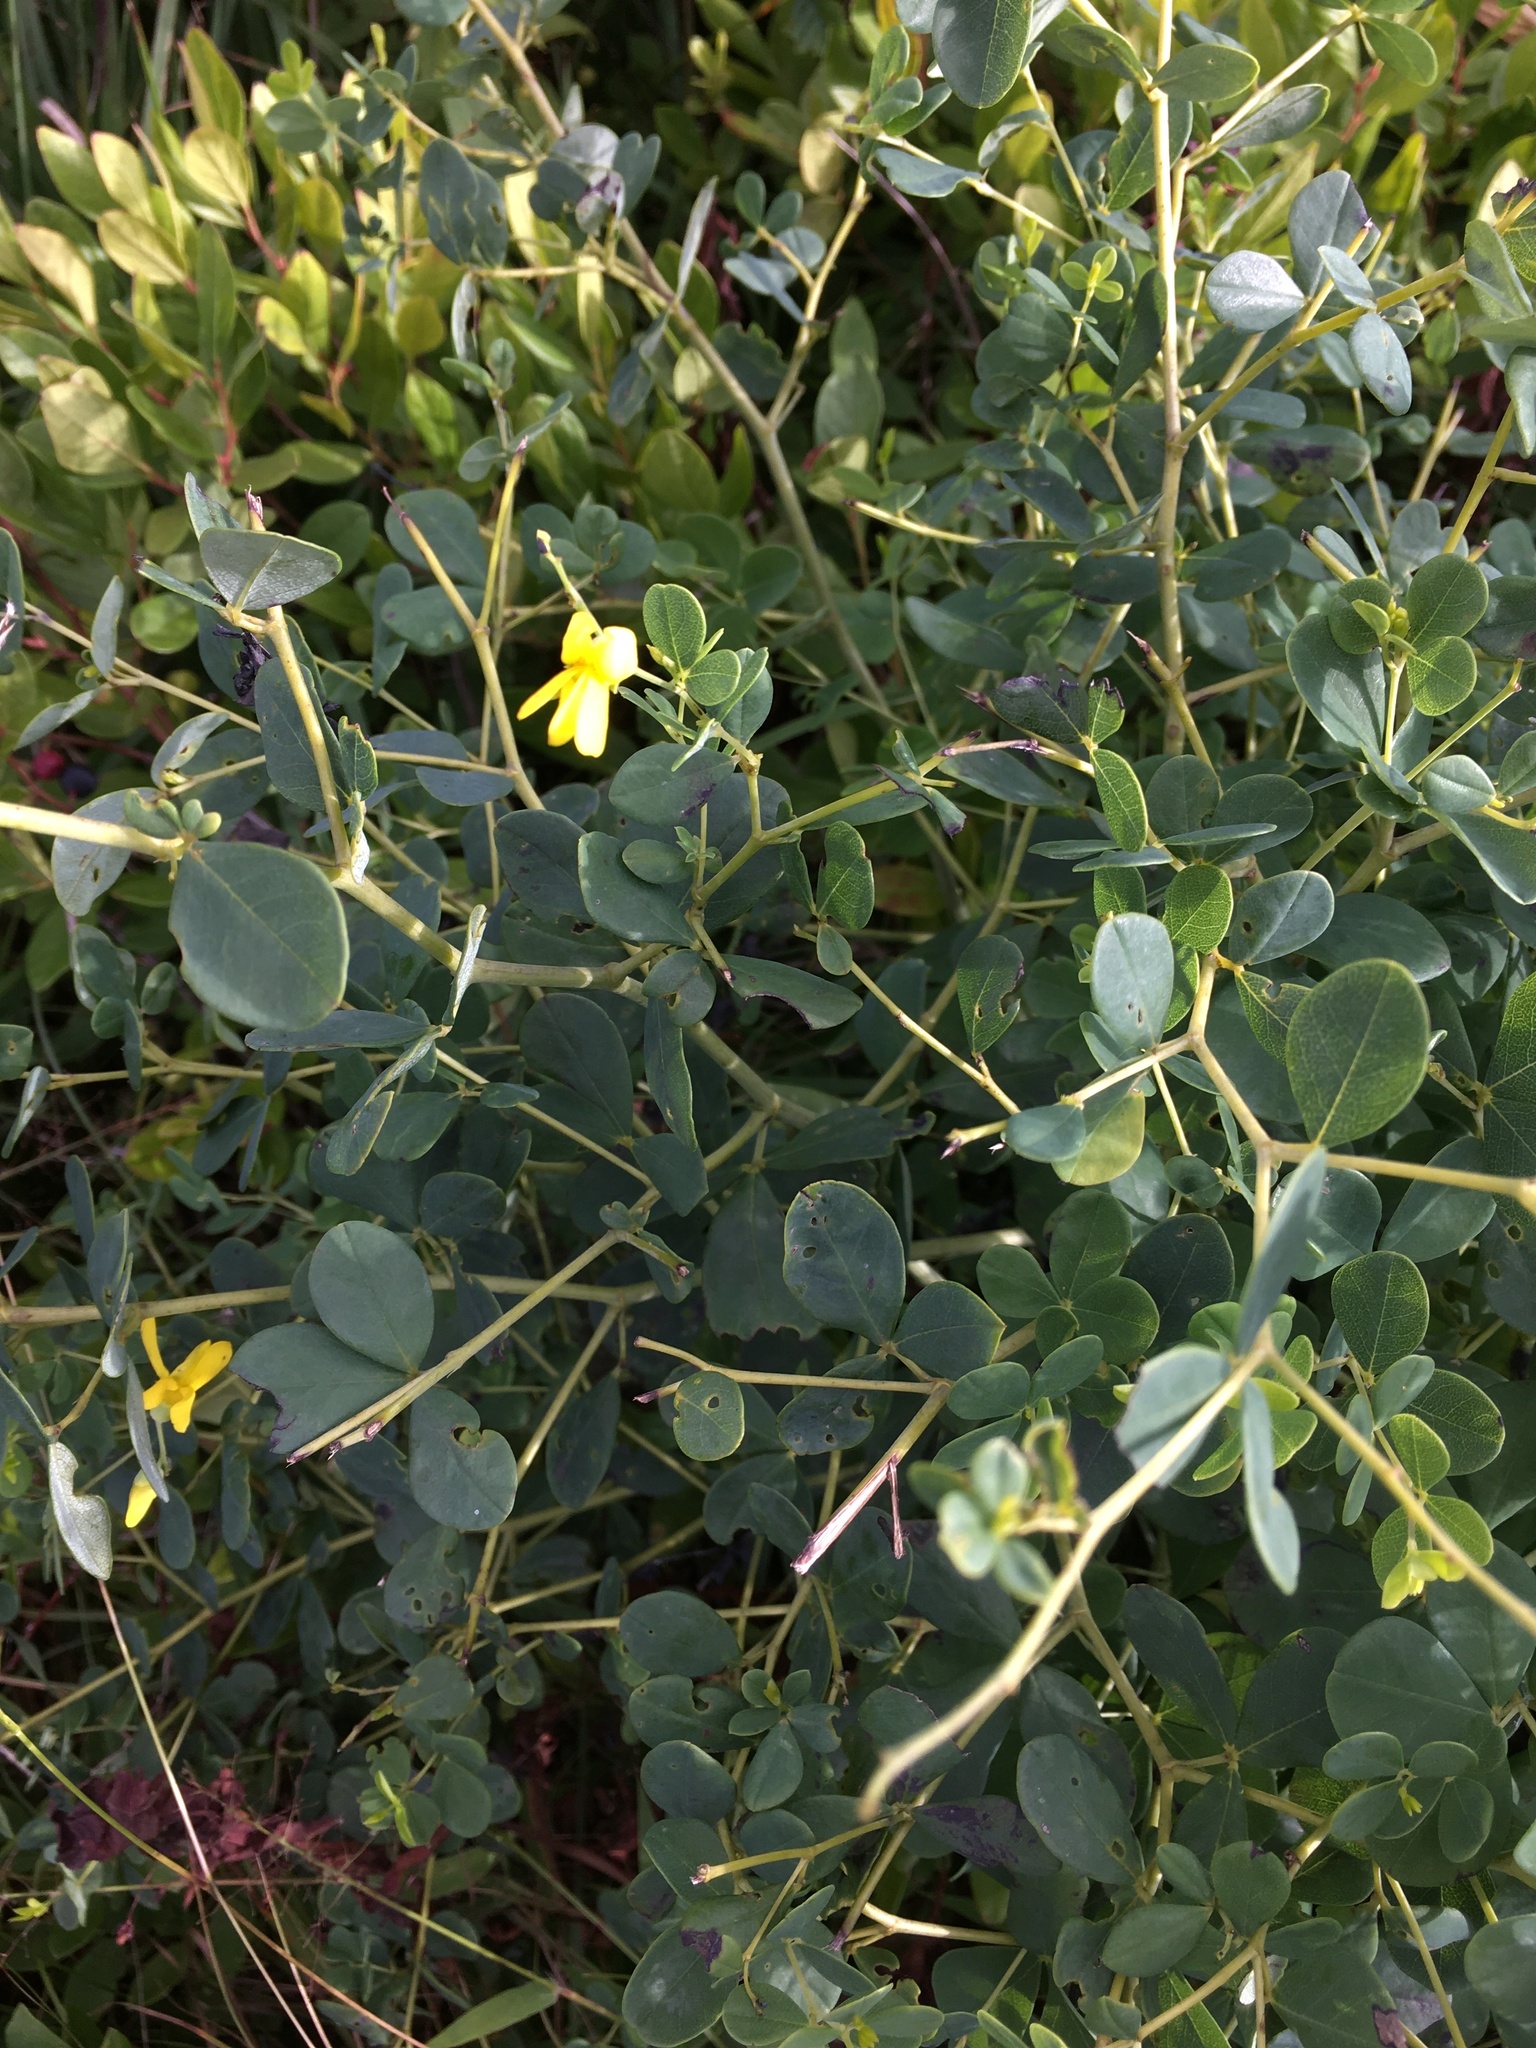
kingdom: Plantae
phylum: Tracheophyta
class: Magnoliopsida
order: Fabales
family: Fabaceae
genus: Baptisia
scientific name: Baptisia tinctoria
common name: Wild indigo
